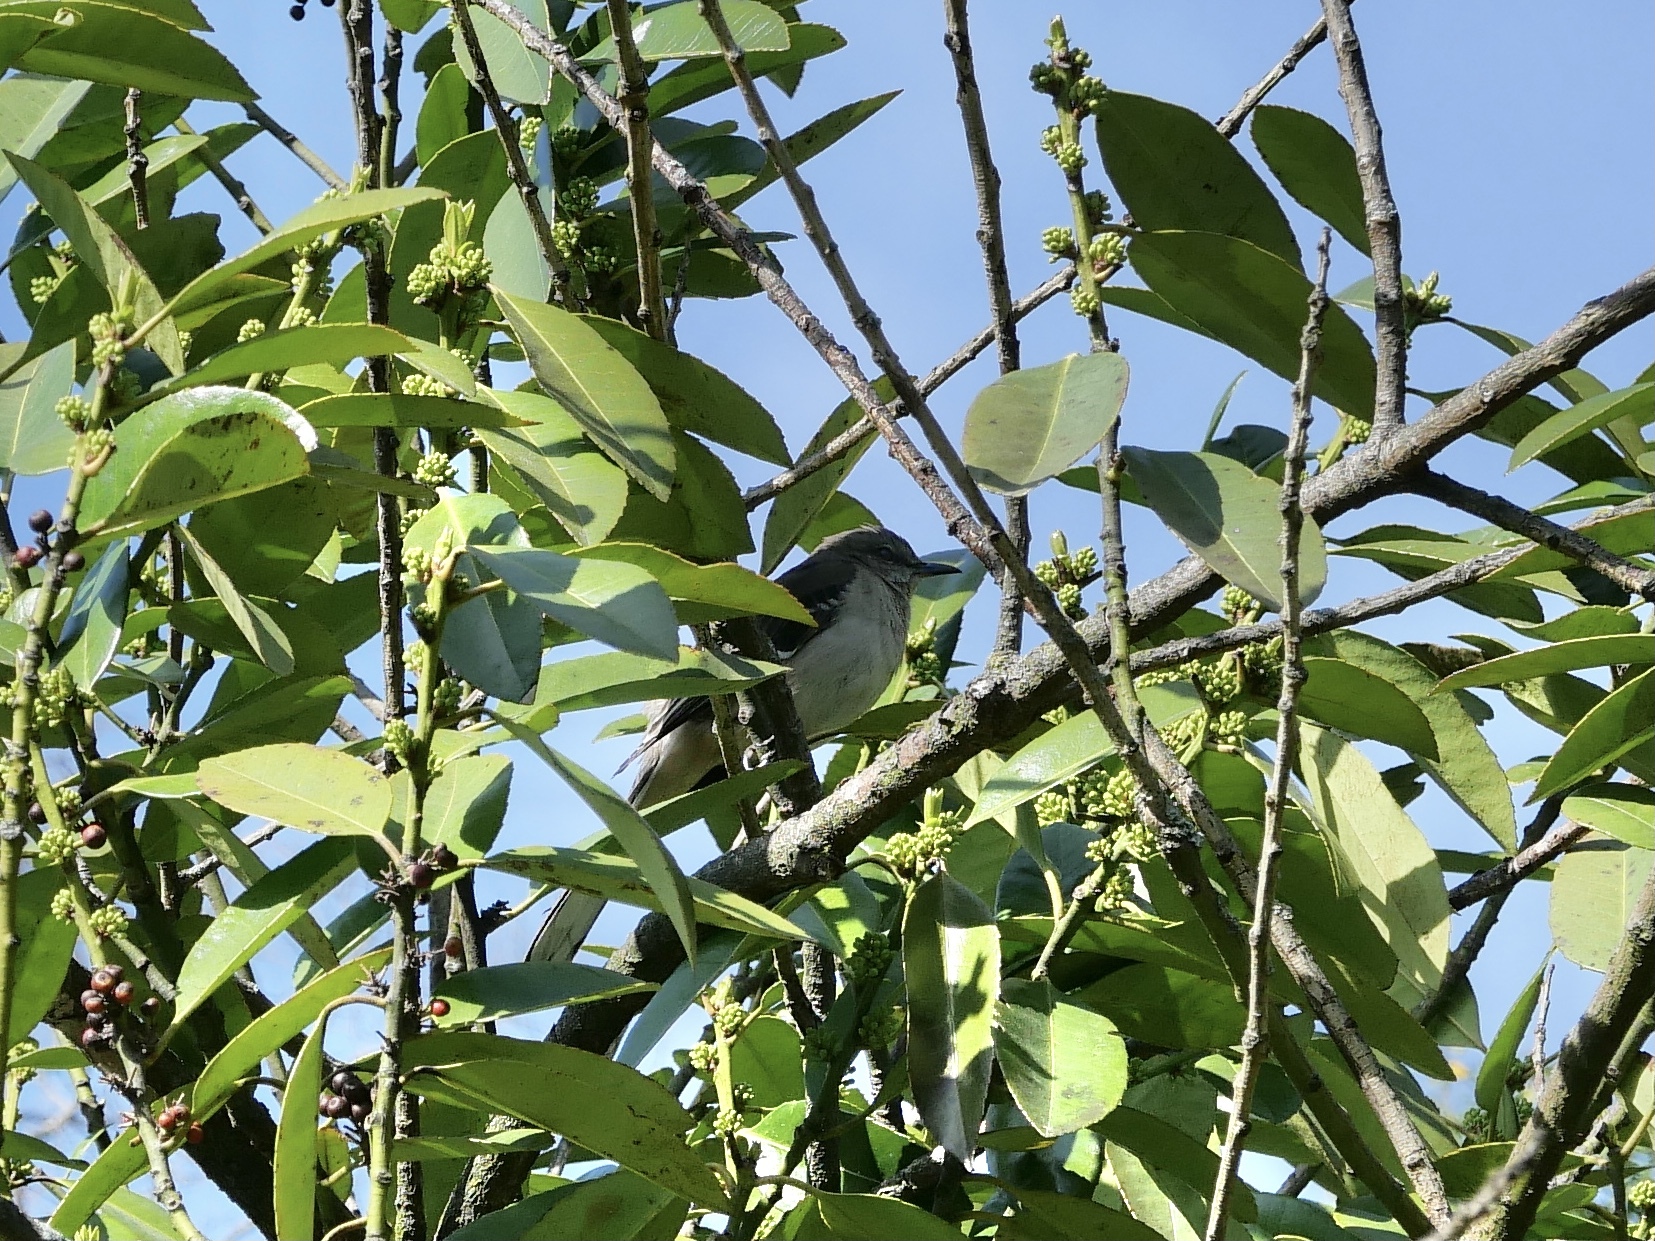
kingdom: Animalia
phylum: Chordata
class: Aves
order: Passeriformes
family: Mimidae
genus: Mimus
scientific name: Mimus polyglottos
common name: Northern mockingbird
